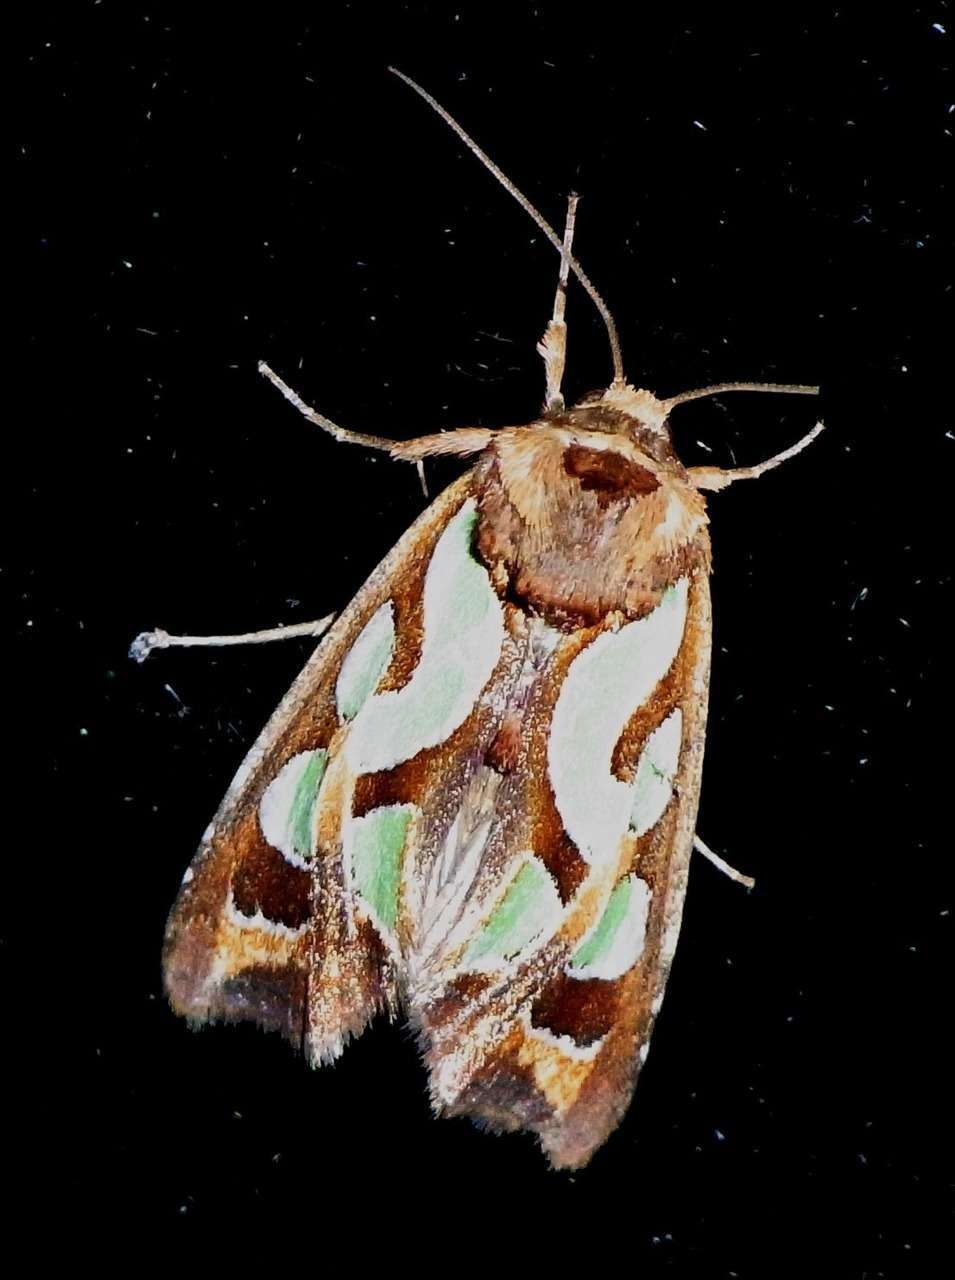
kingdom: Animalia
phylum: Arthropoda
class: Insecta
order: Lepidoptera
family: Noctuidae
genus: Cosmodes
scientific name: Cosmodes elegans
